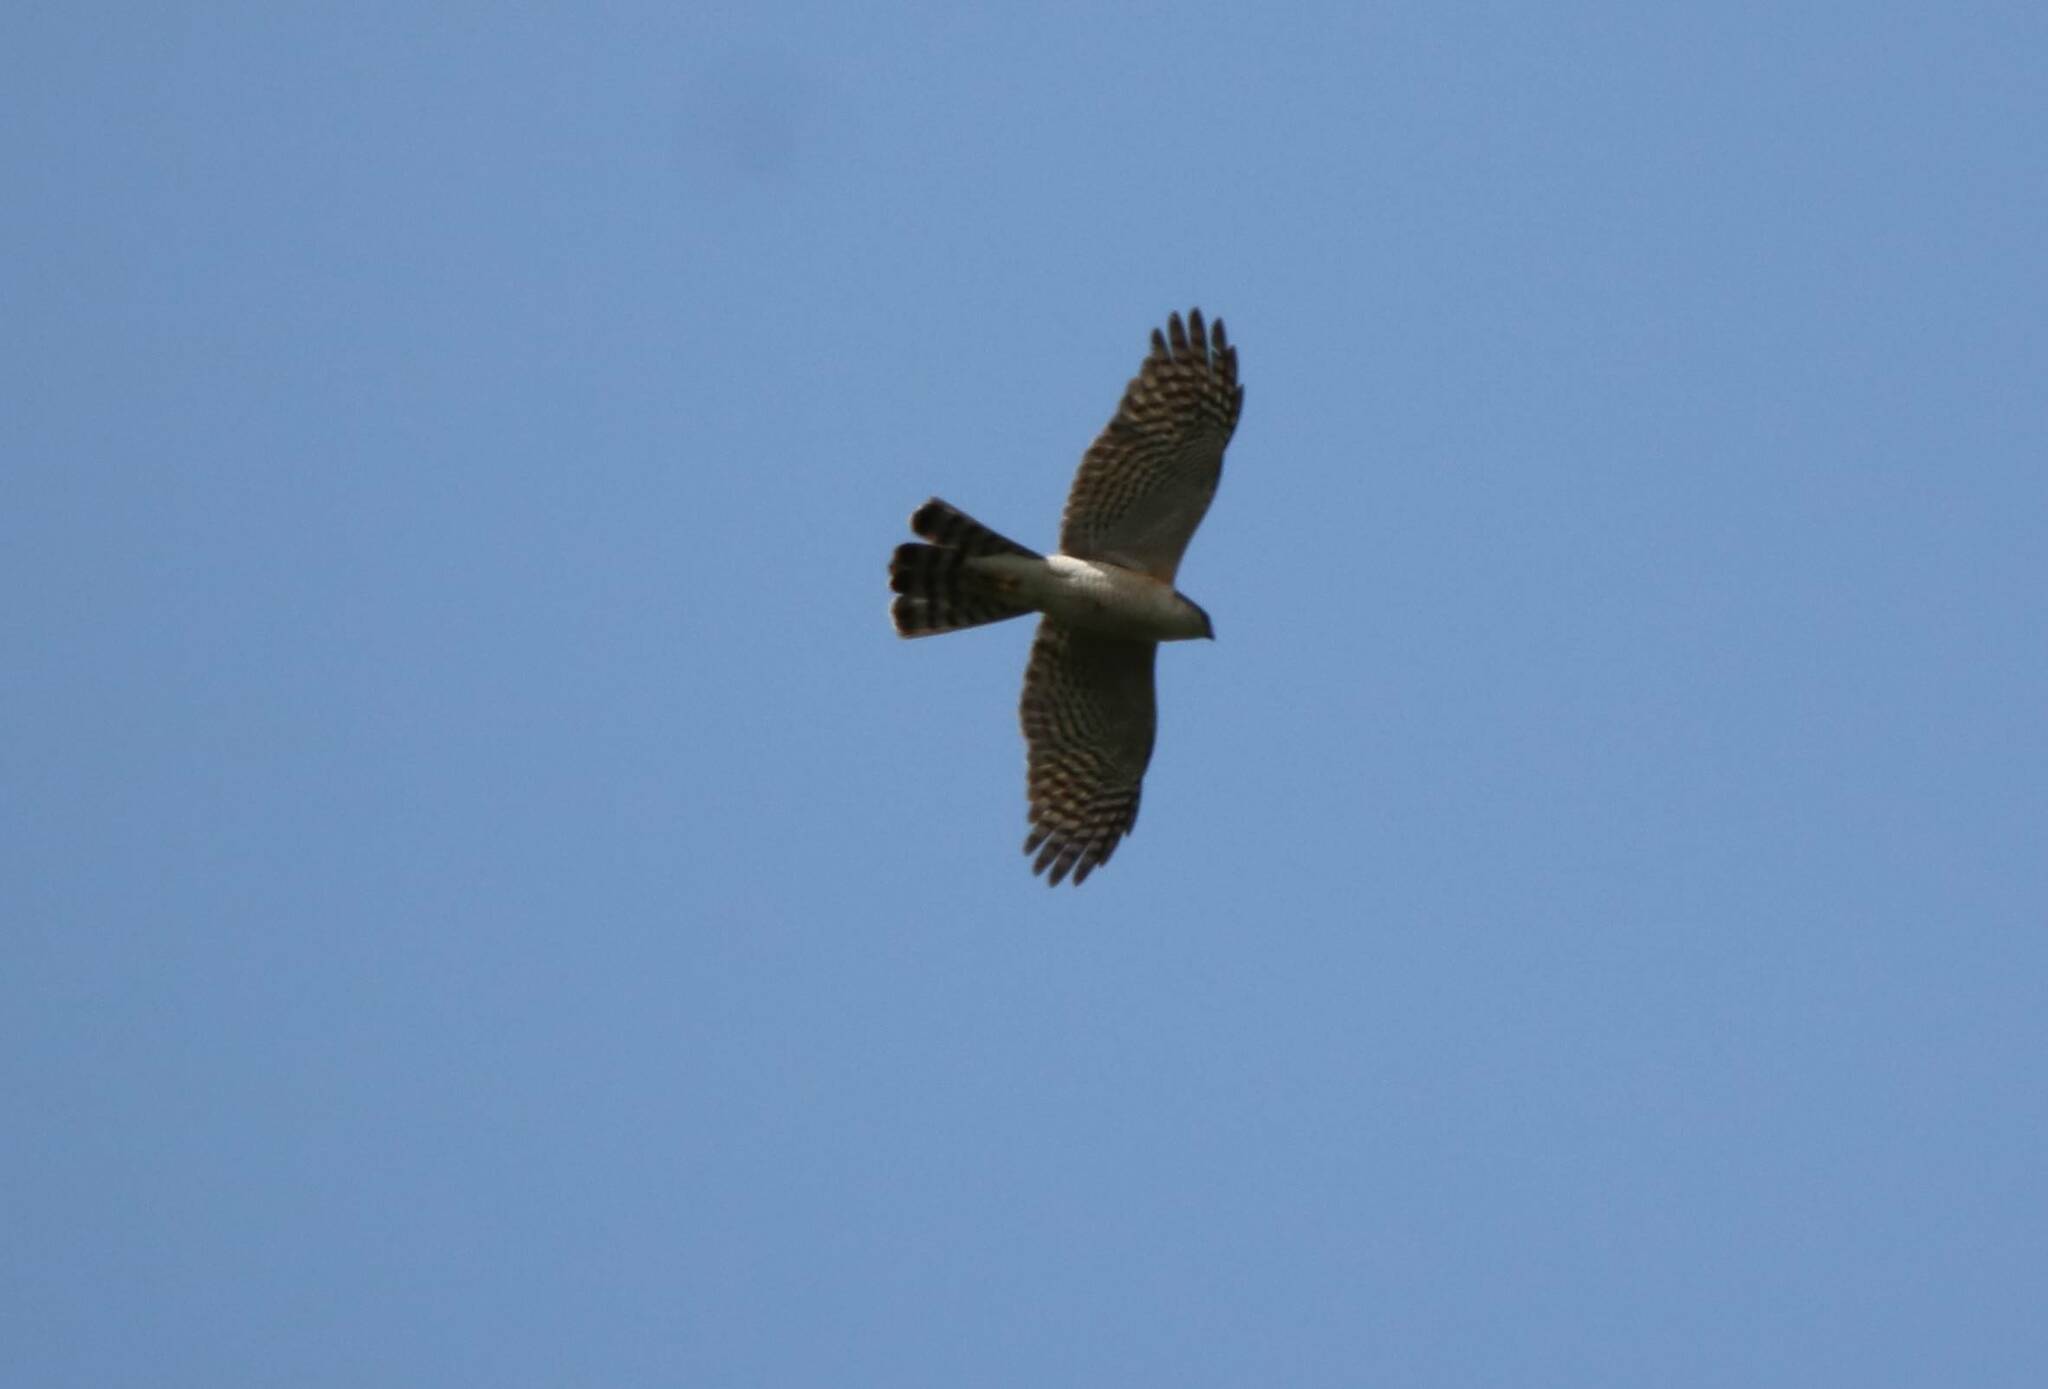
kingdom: Animalia
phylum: Chordata
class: Aves
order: Accipitriformes
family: Accipitridae
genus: Accipiter
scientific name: Accipiter nisus
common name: Eurasian sparrowhawk
